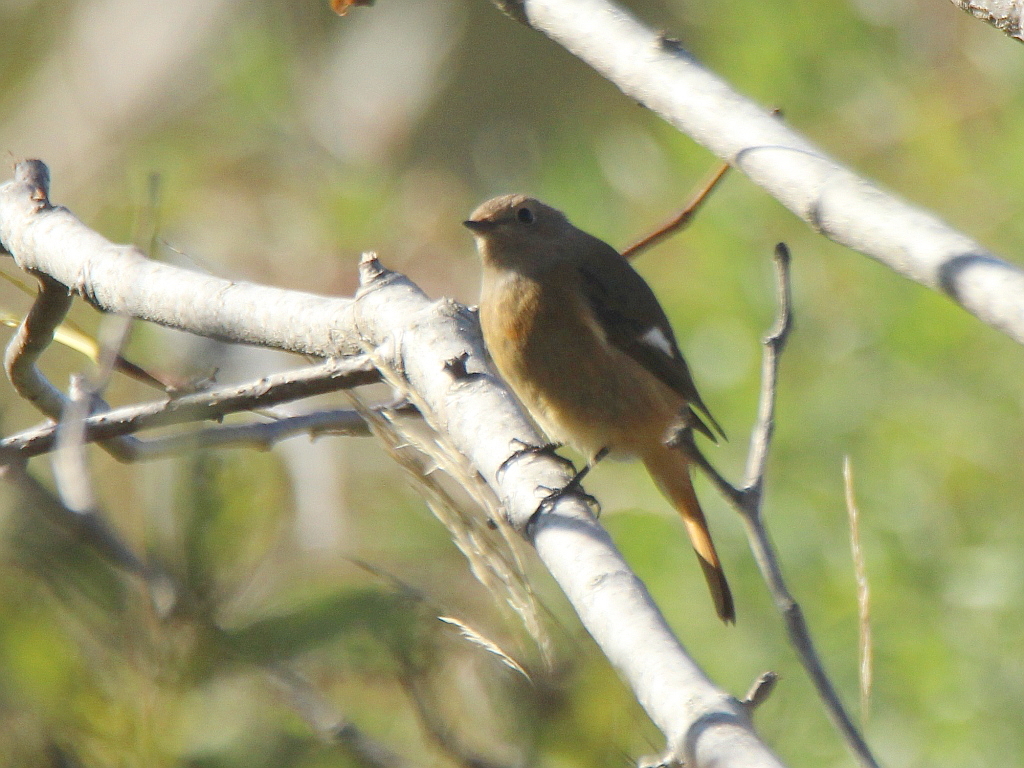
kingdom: Animalia
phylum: Chordata
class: Aves
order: Passeriformes
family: Muscicapidae
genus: Phoenicurus
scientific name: Phoenicurus auroreus
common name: Daurian redstart
